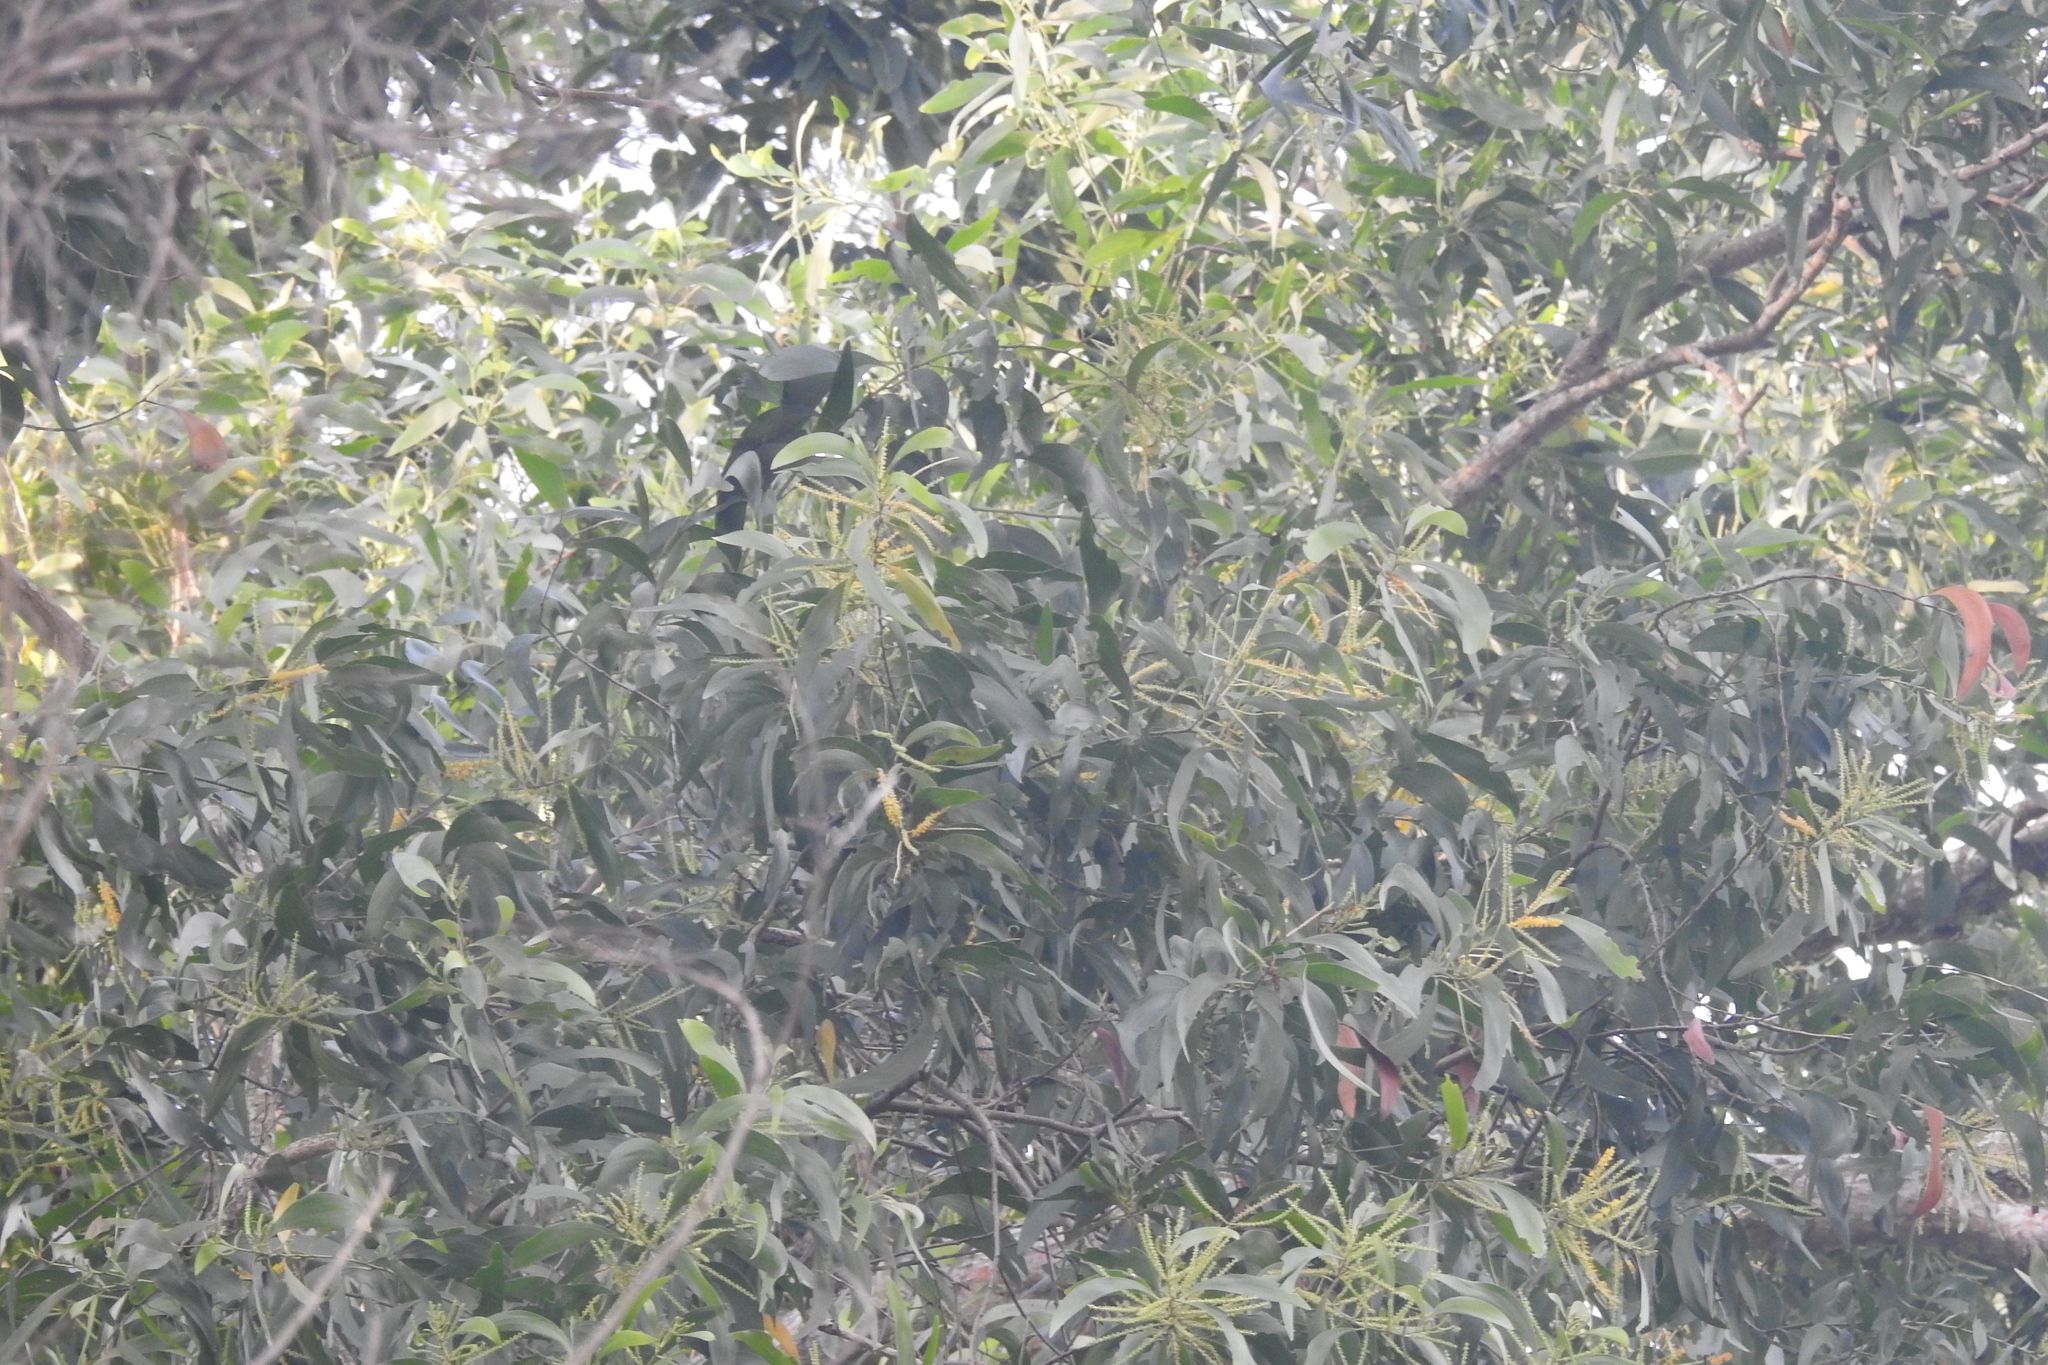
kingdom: Plantae
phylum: Tracheophyta
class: Magnoliopsida
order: Fabales
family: Fabaceae
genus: Acacia
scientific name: Acacia auriculiformis
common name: Earleaf acacia
